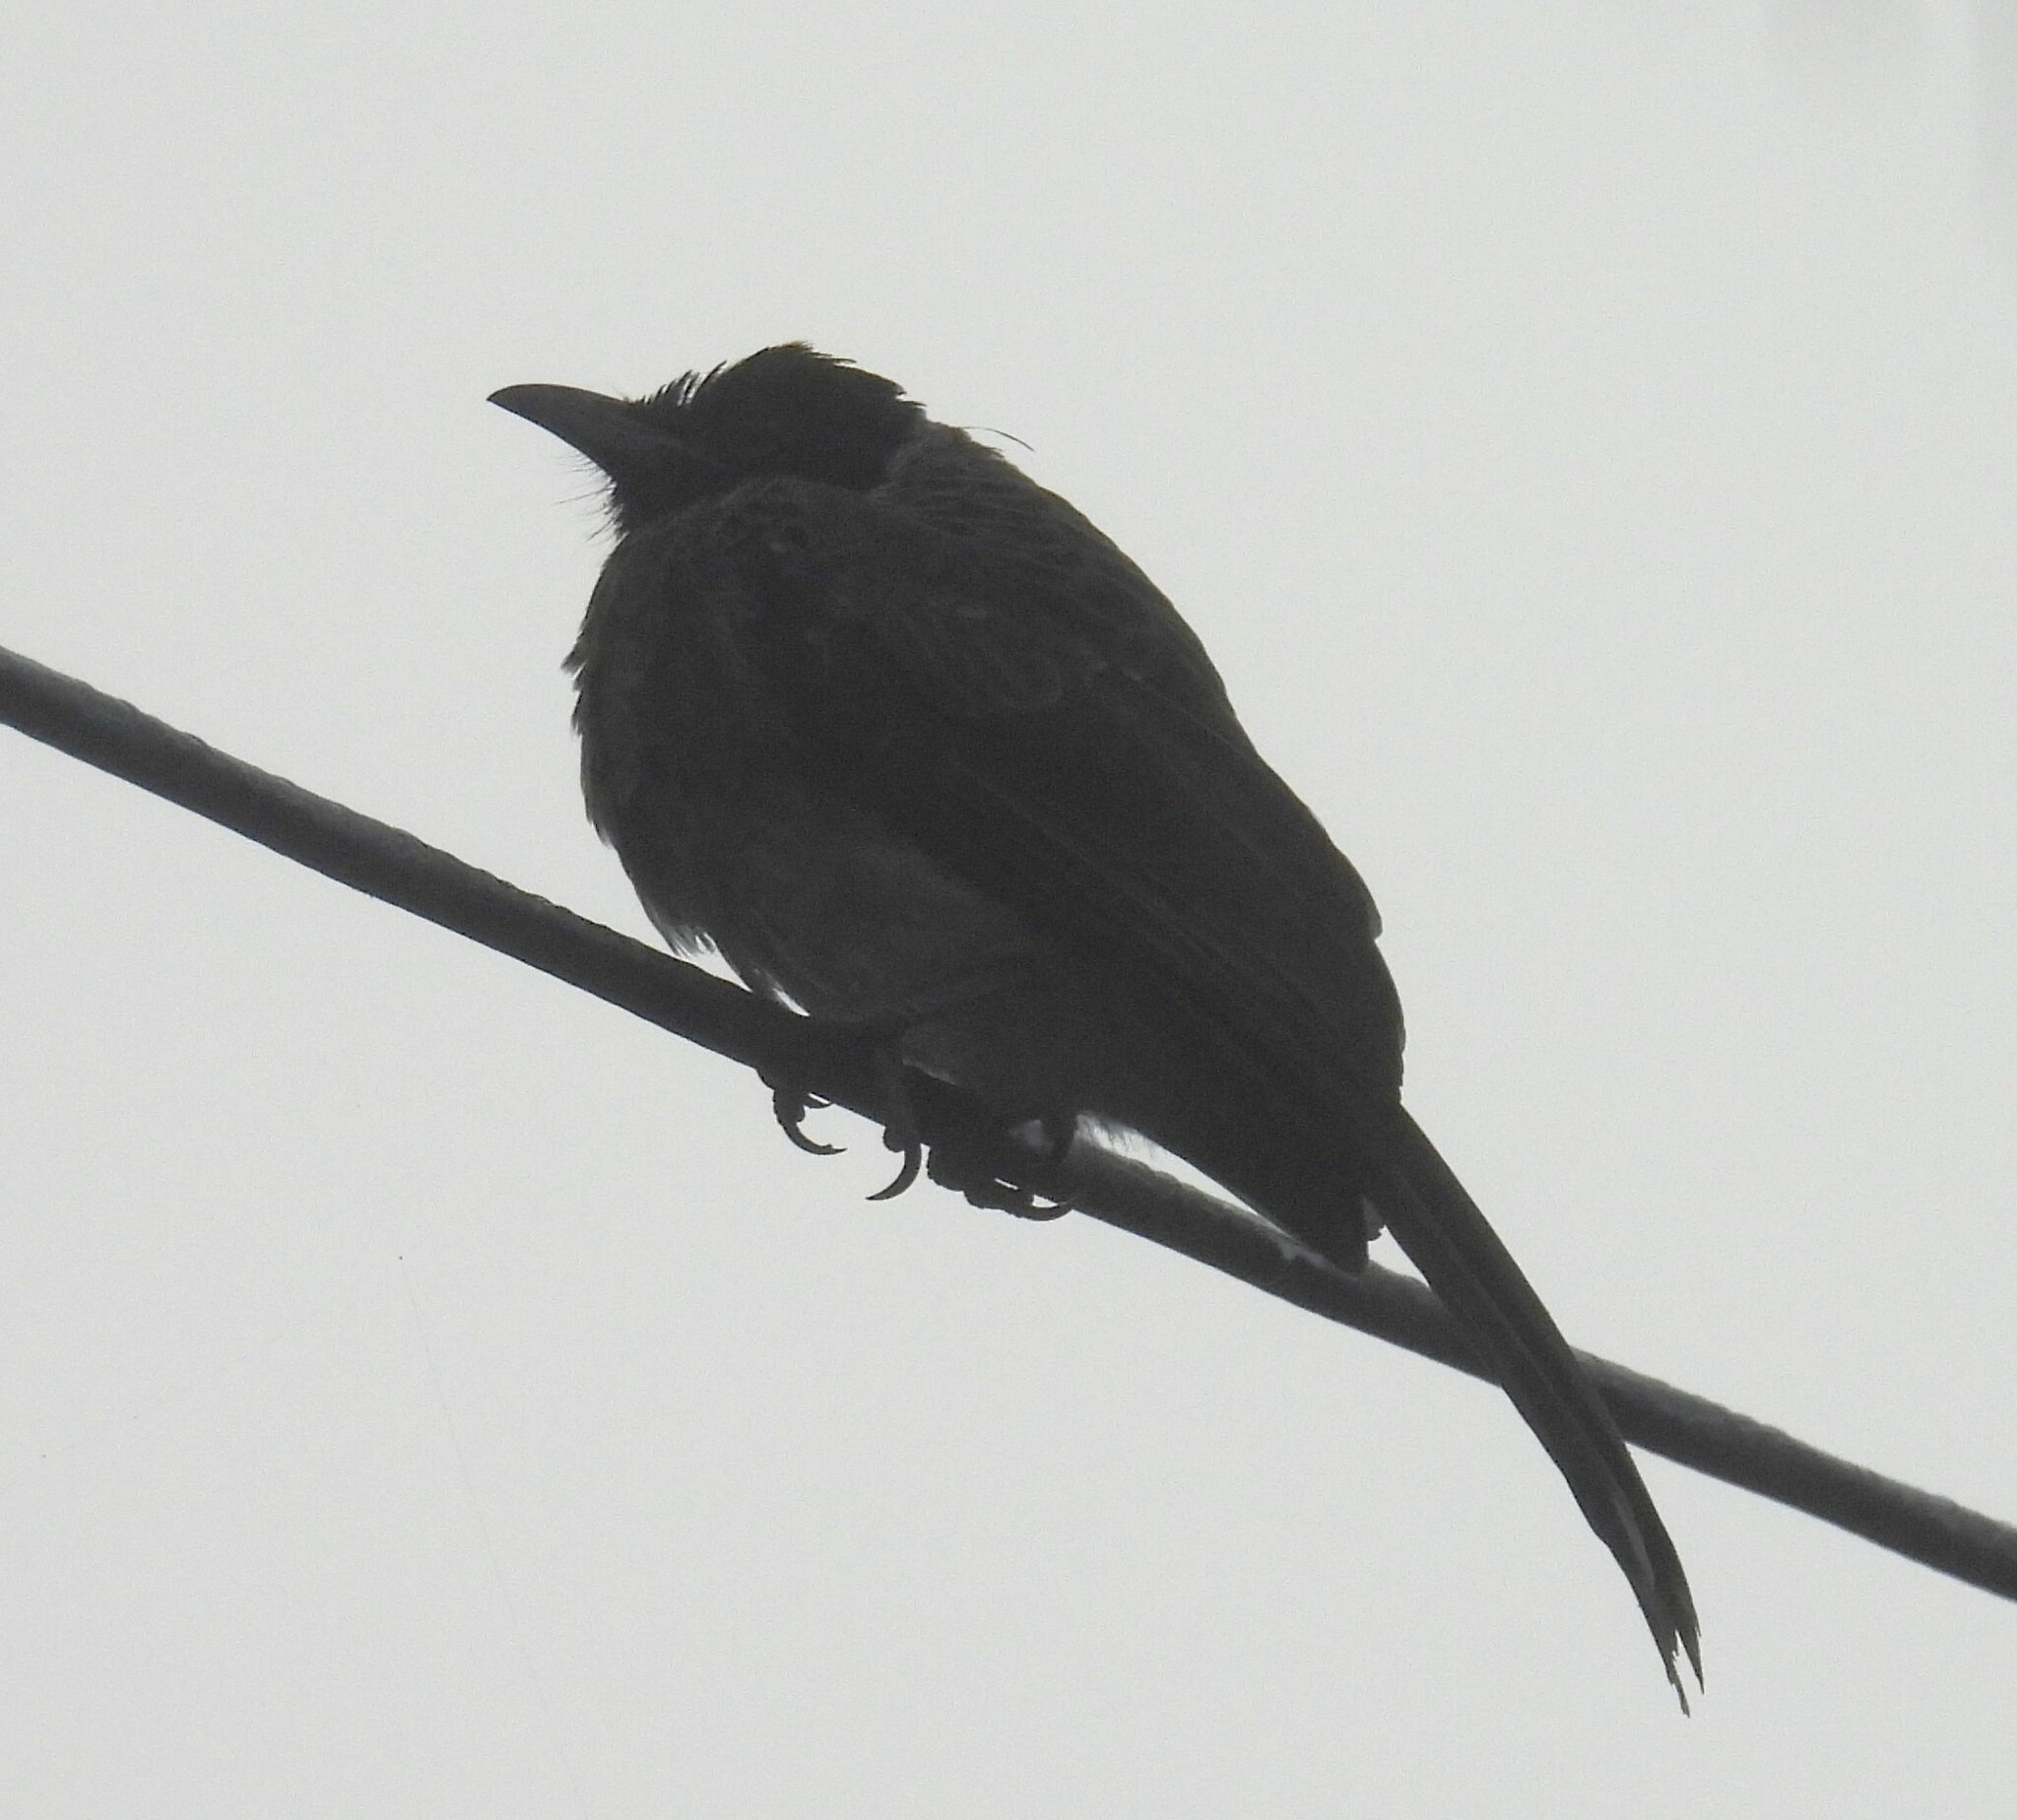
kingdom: Animalia
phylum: Chordata
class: Aves
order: Passeriformes
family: Pycnonotidae
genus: Pycnonotus
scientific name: Pycnonotus cafer
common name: Red-vented bulbul
